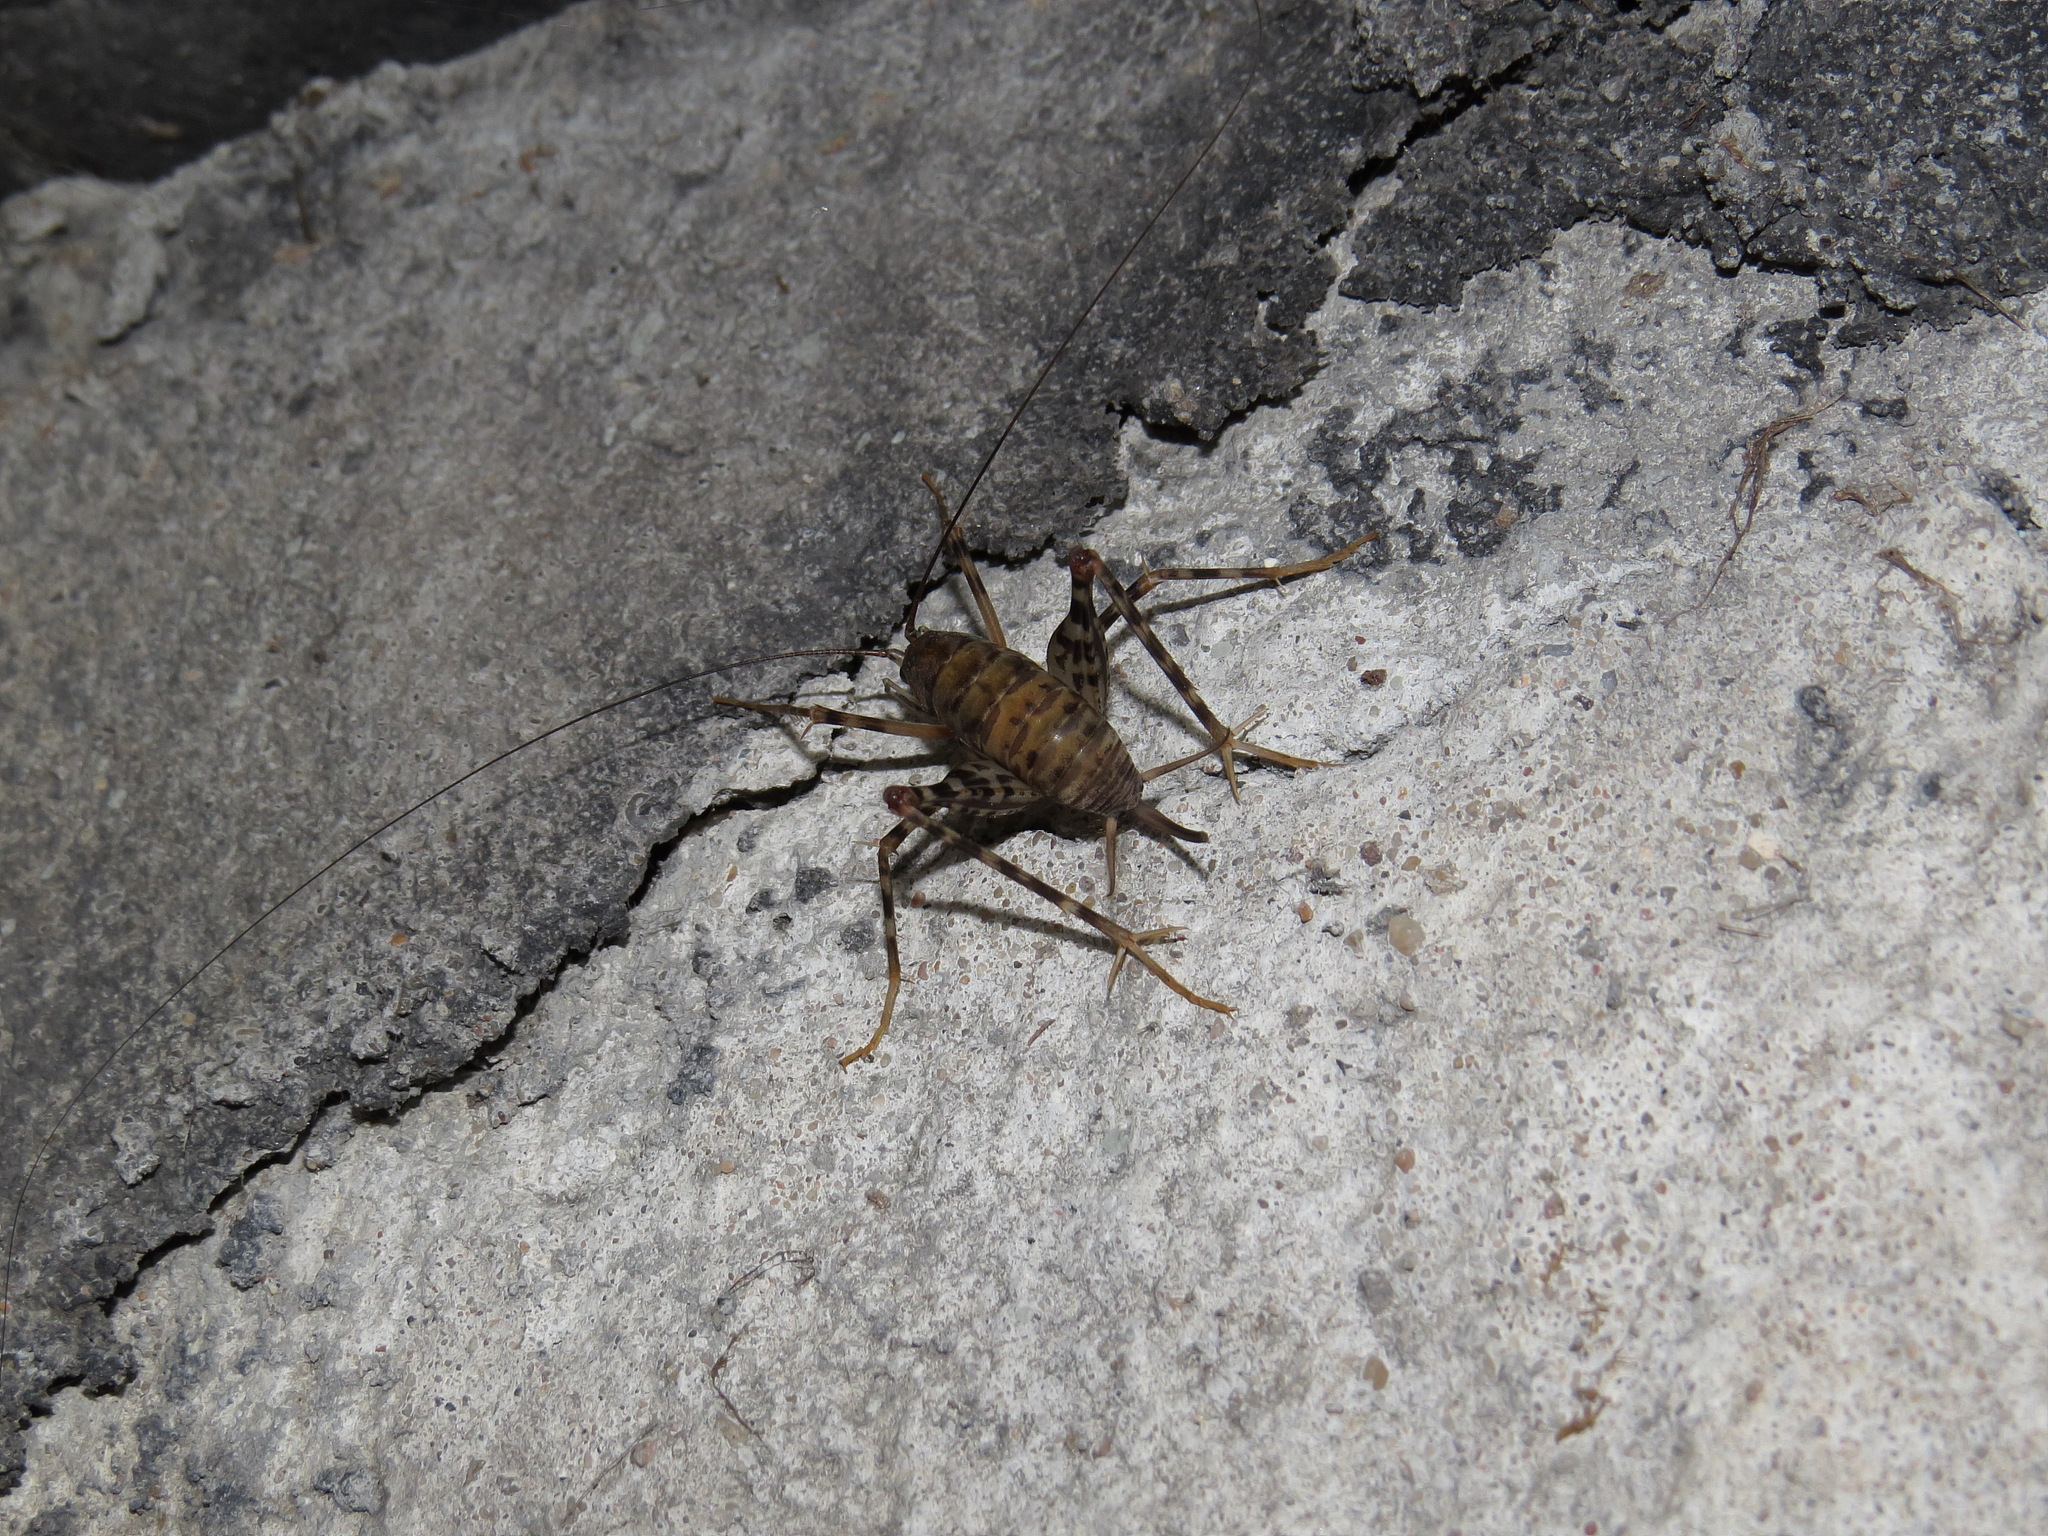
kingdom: Animalia
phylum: Arthropoda
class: Insecta
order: Orthoptera
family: Rhaphidophoridae
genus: Tachycines
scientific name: Tachycines asynamorus
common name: Greenhouse camel cricket
